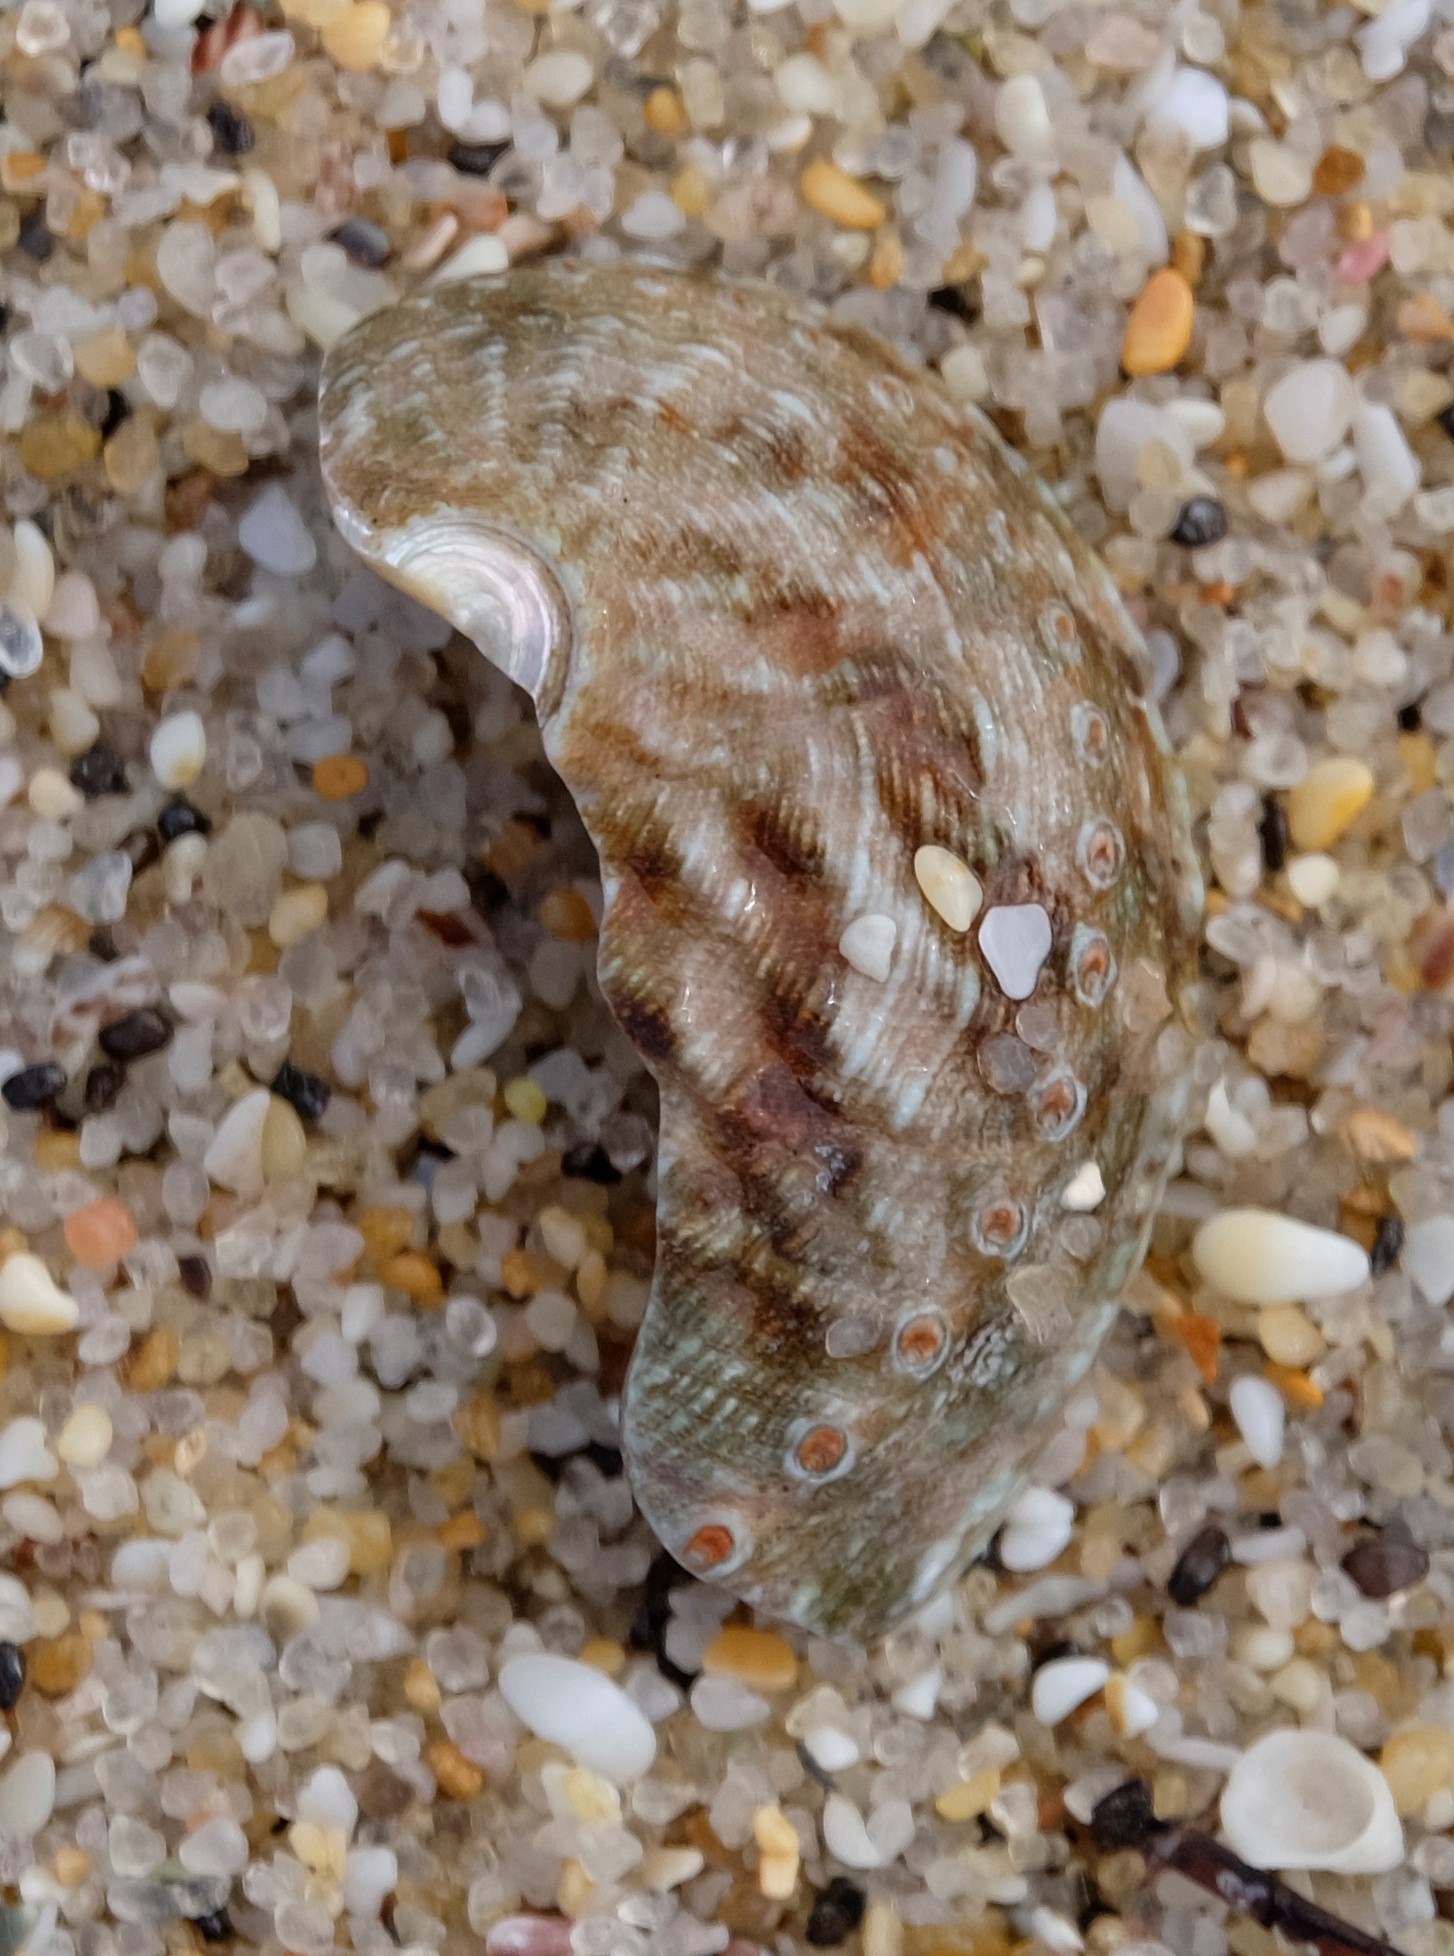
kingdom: Animalia
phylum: Mollusca
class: Gastropoda
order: Lepetellida
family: Haliotidae
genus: Haliotis
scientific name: Haliotis rubra
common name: Blacklip abalone
